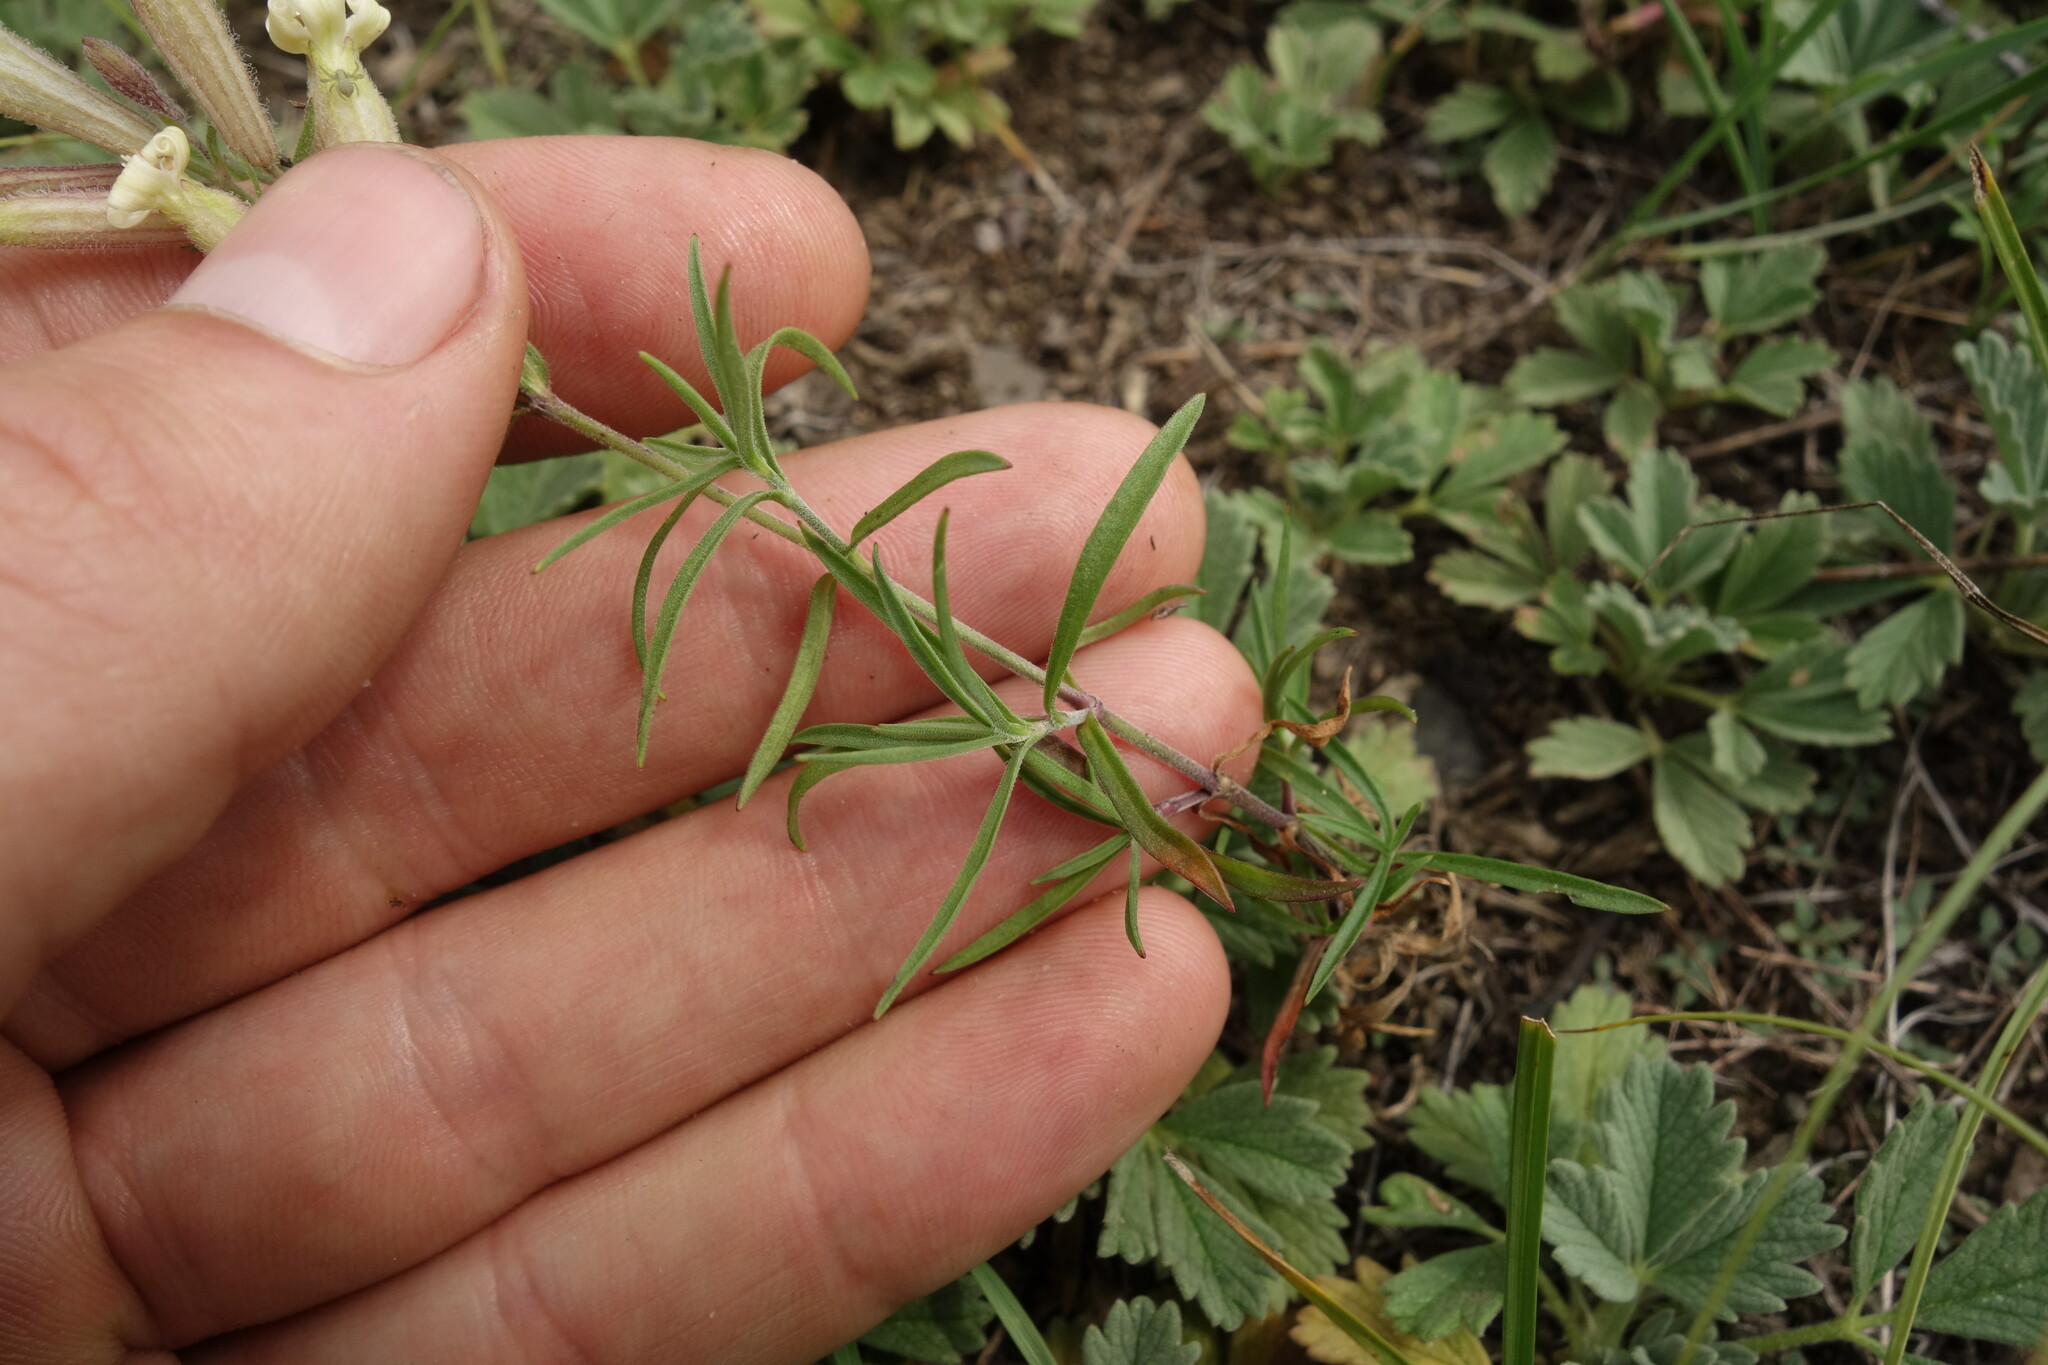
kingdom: Plantae
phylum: Tracheophyta
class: Magnoliopsida
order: Caryophyllales
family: Caryophyllaceae
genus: Silene
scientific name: Silene amoena
